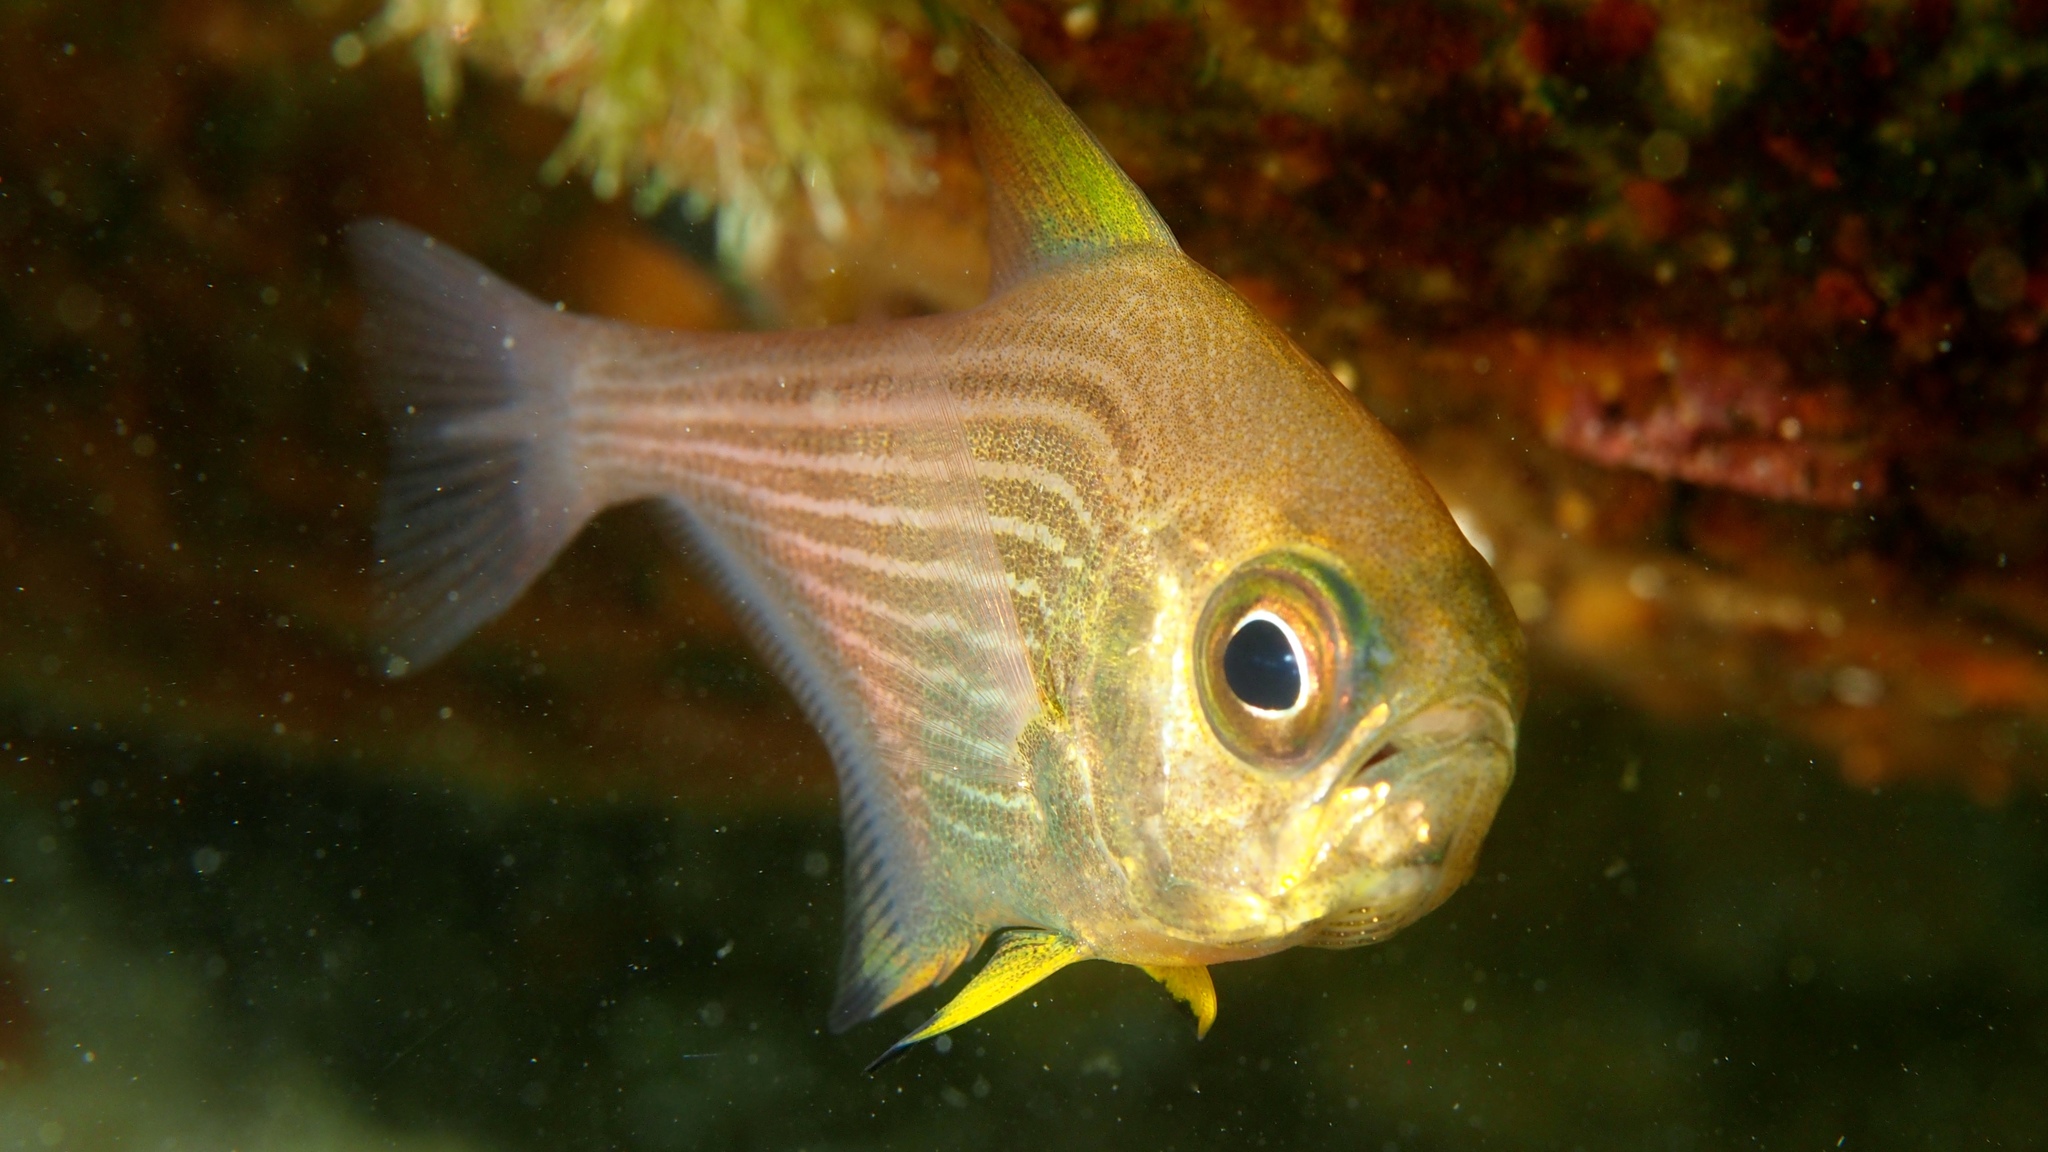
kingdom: Animalia
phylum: Chordata
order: Perciformes
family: Pempheridae
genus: Pempheris
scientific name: Pempheris multiradiata
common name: Big-scaled bullseye
